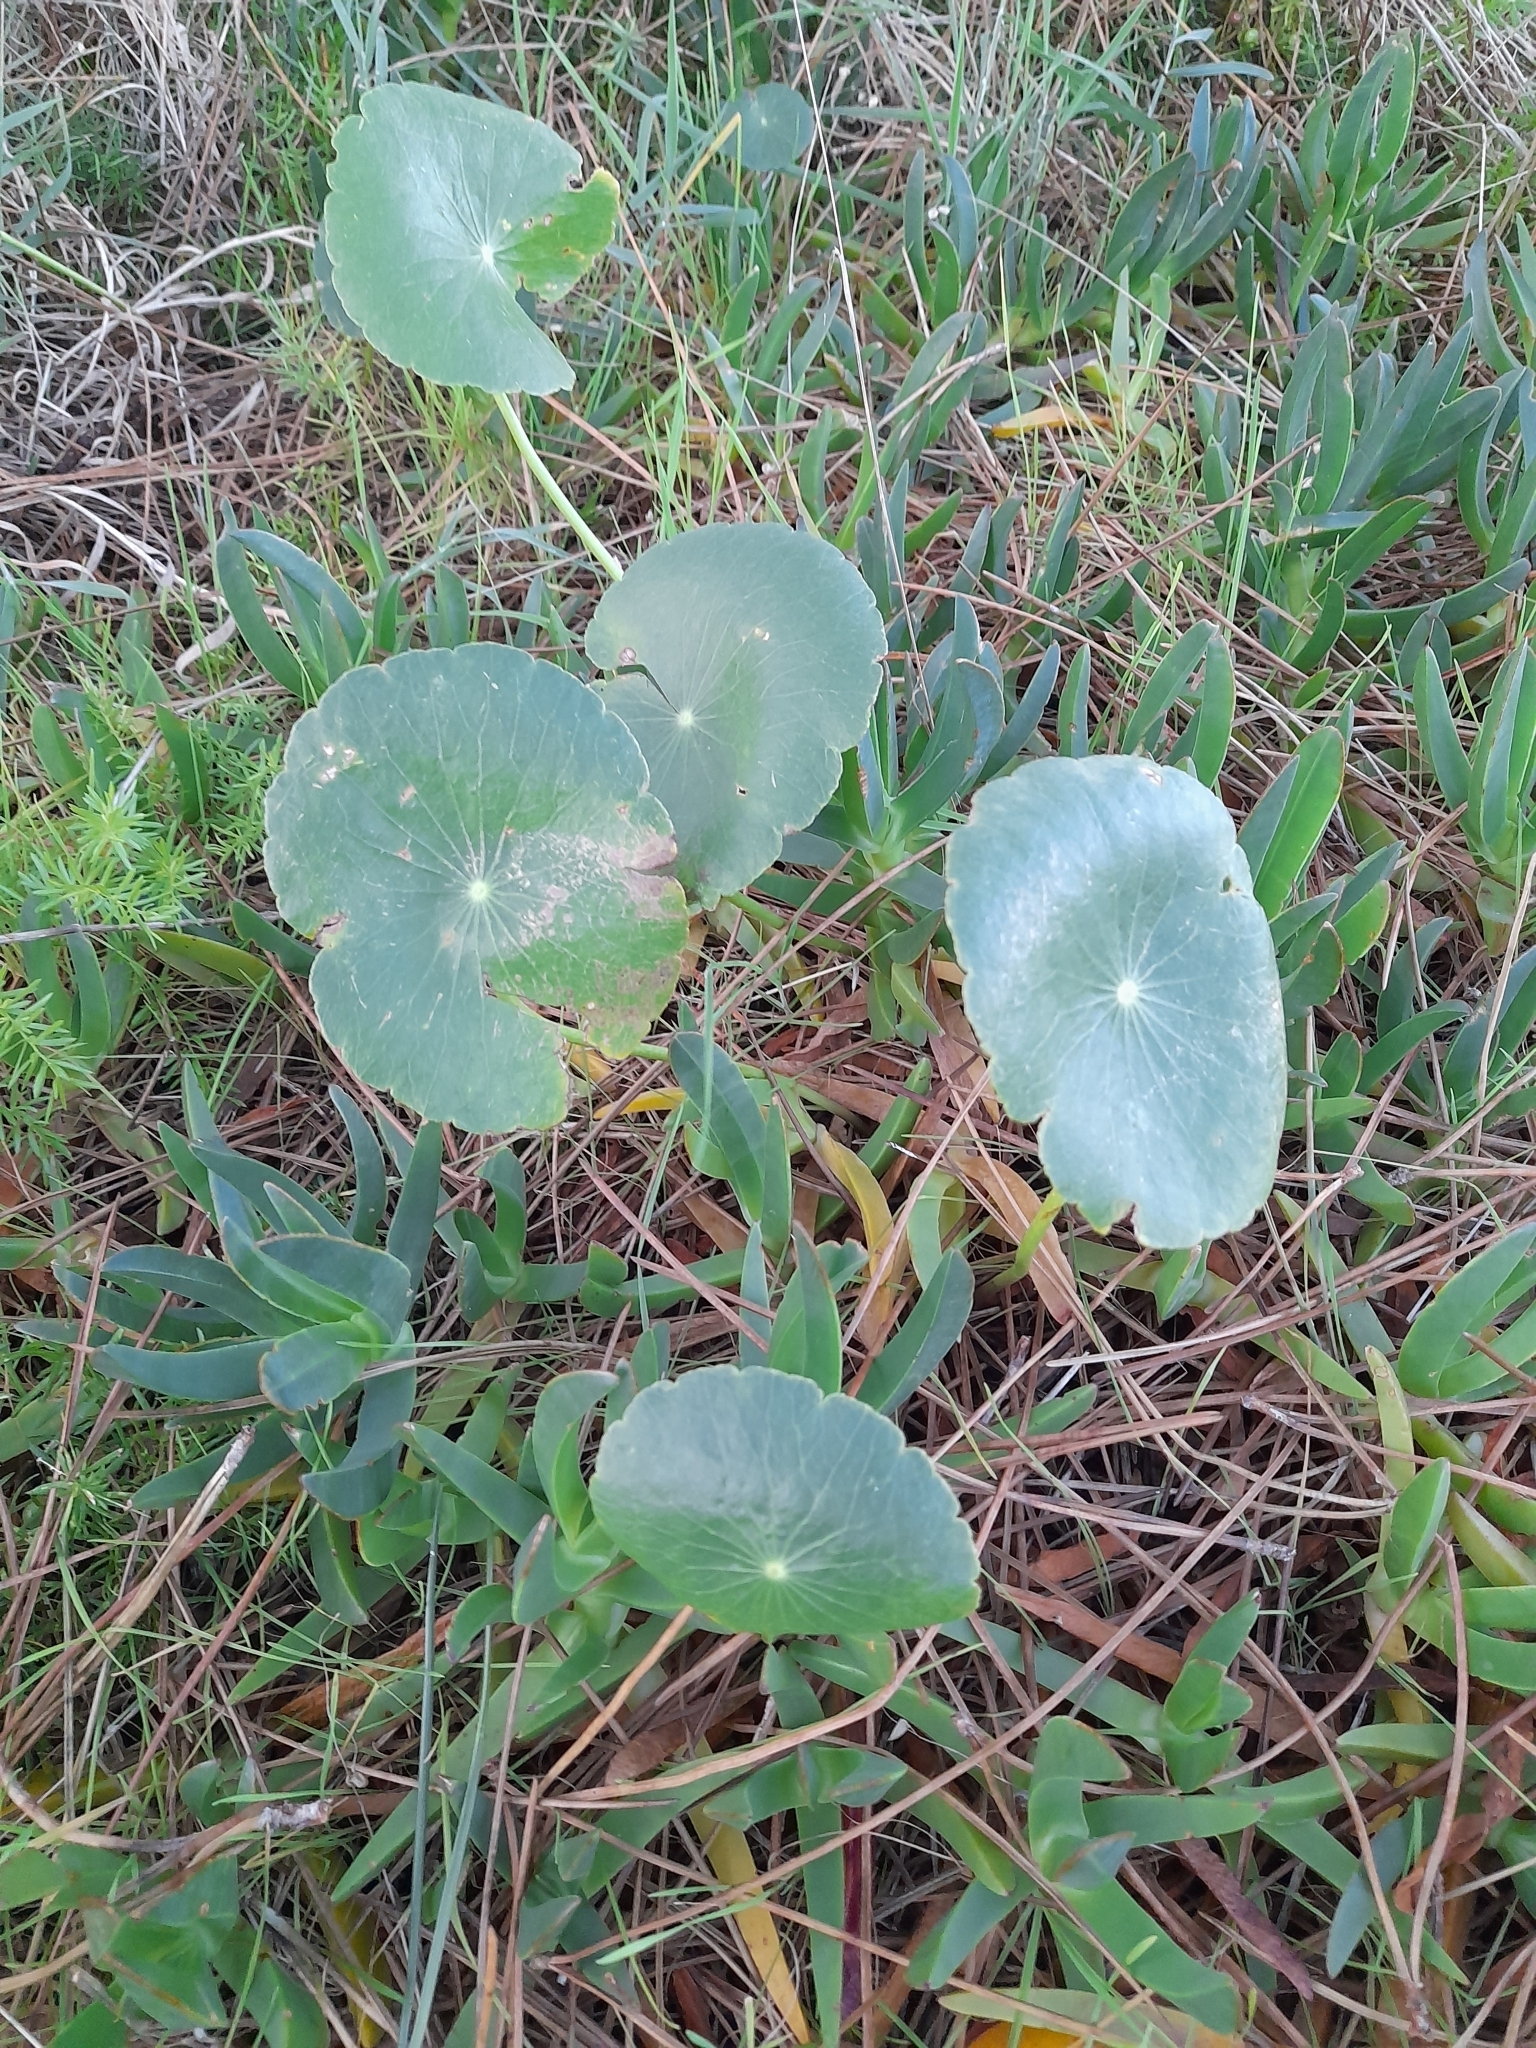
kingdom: Plantae
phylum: Tracheophyta
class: Magnoliopsida
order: Apiales
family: Araliaceae
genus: Hydrocotyle
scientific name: Hydrocotyle bonariensis
